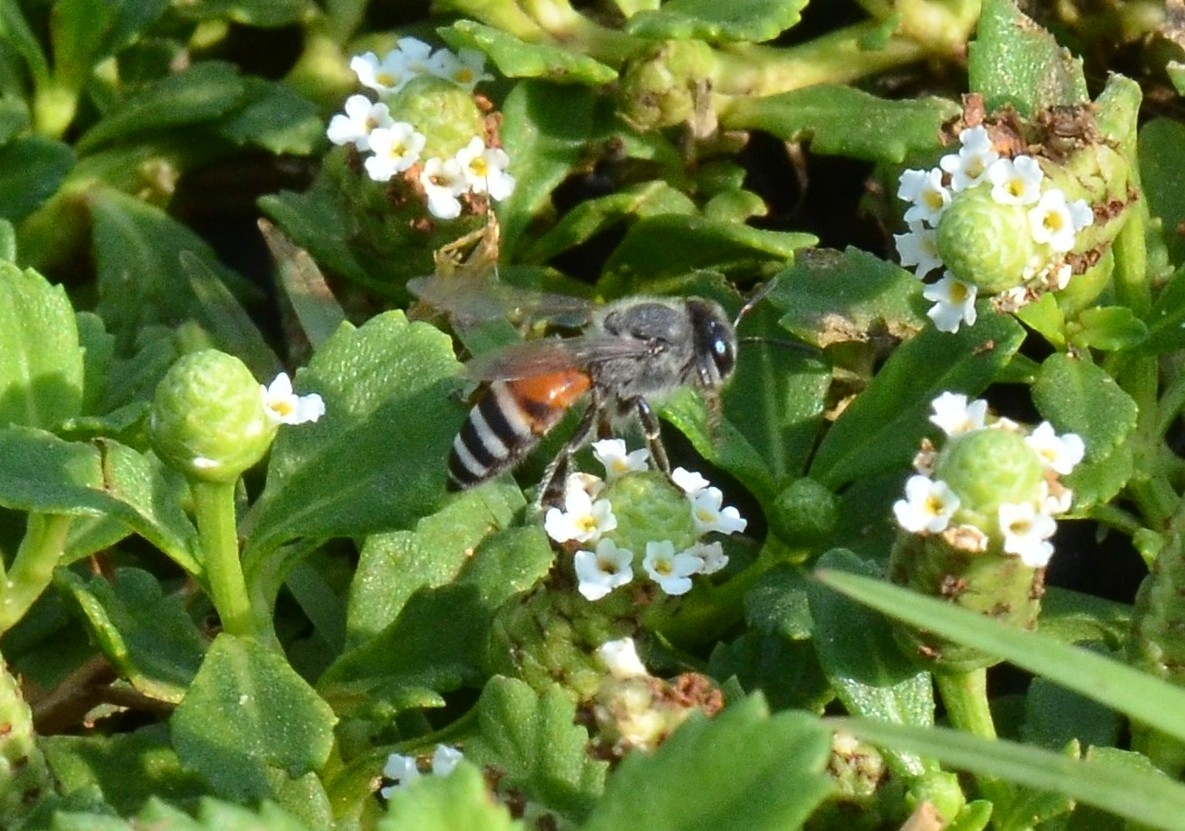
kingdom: Animalia
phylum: Arthropoda
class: Insecta
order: Hymenoptera
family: Apidae
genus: Apis
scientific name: Apis florea
